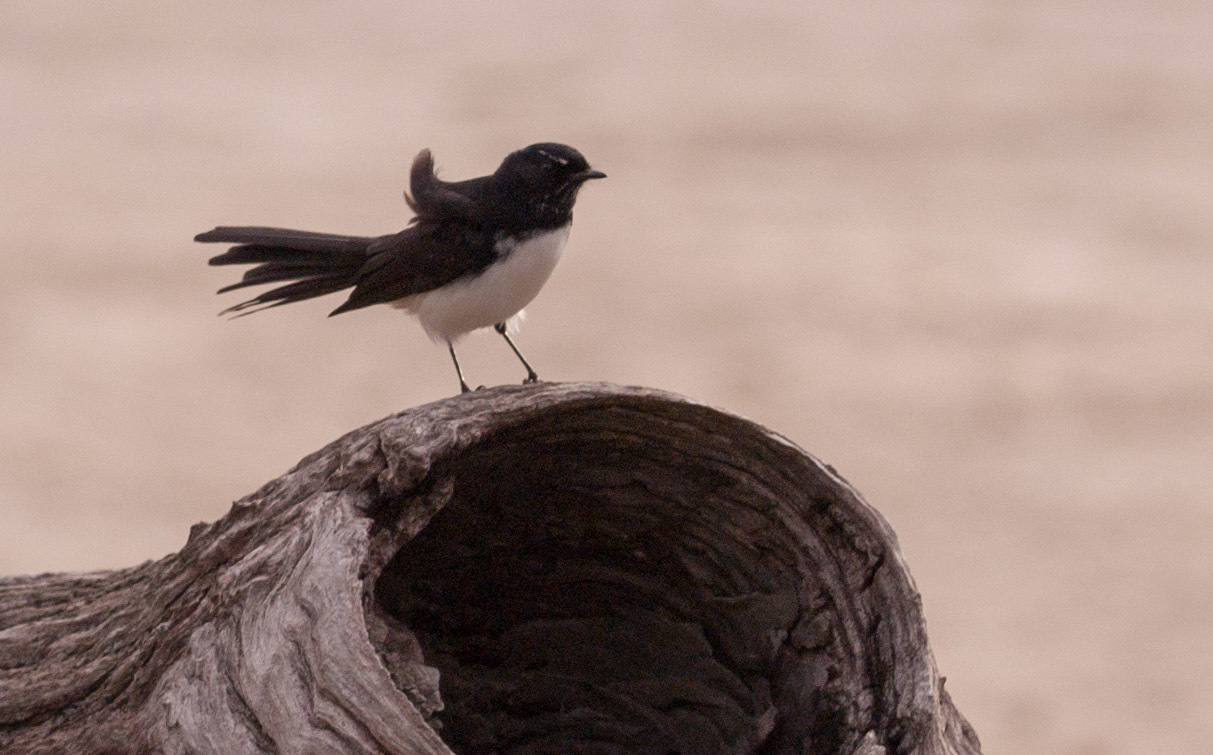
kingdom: Animalia
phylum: Chordata
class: Aves
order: Passeriformes
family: Rhipiduridae
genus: Rhipidura
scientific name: Rhipidura leucophrys
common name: Willie wagtail
